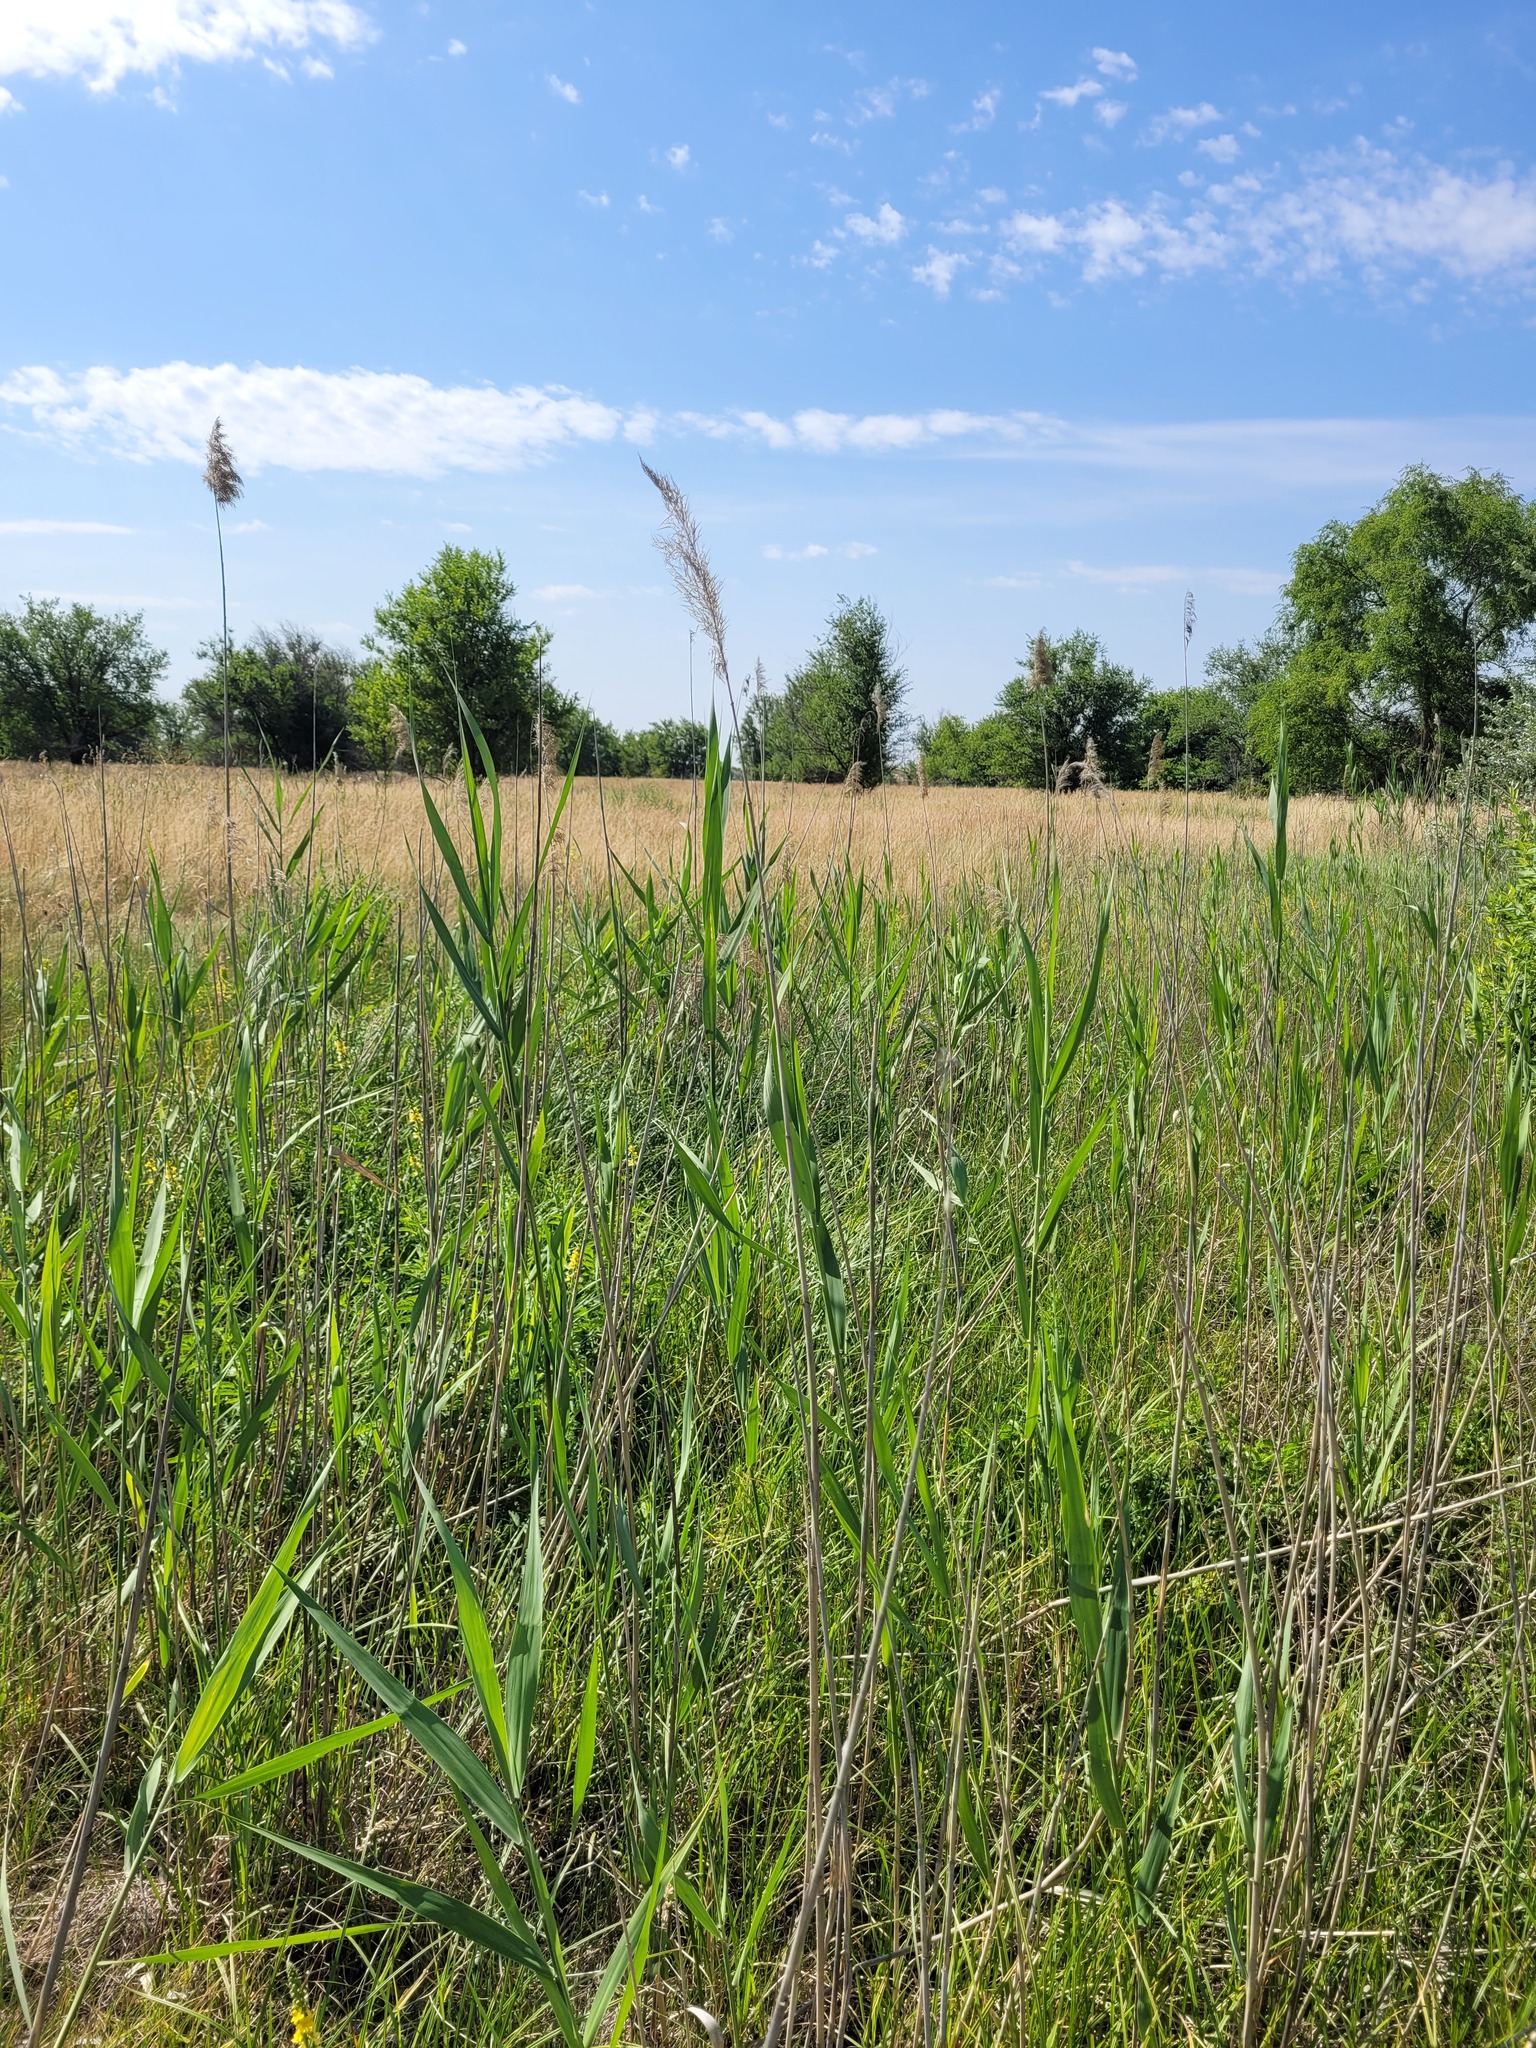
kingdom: Plantae
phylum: Tracheophyta
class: Liliopsida
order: Poales
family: Poaceae
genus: Phragmites
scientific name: Phragmites australis
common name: Common reed
